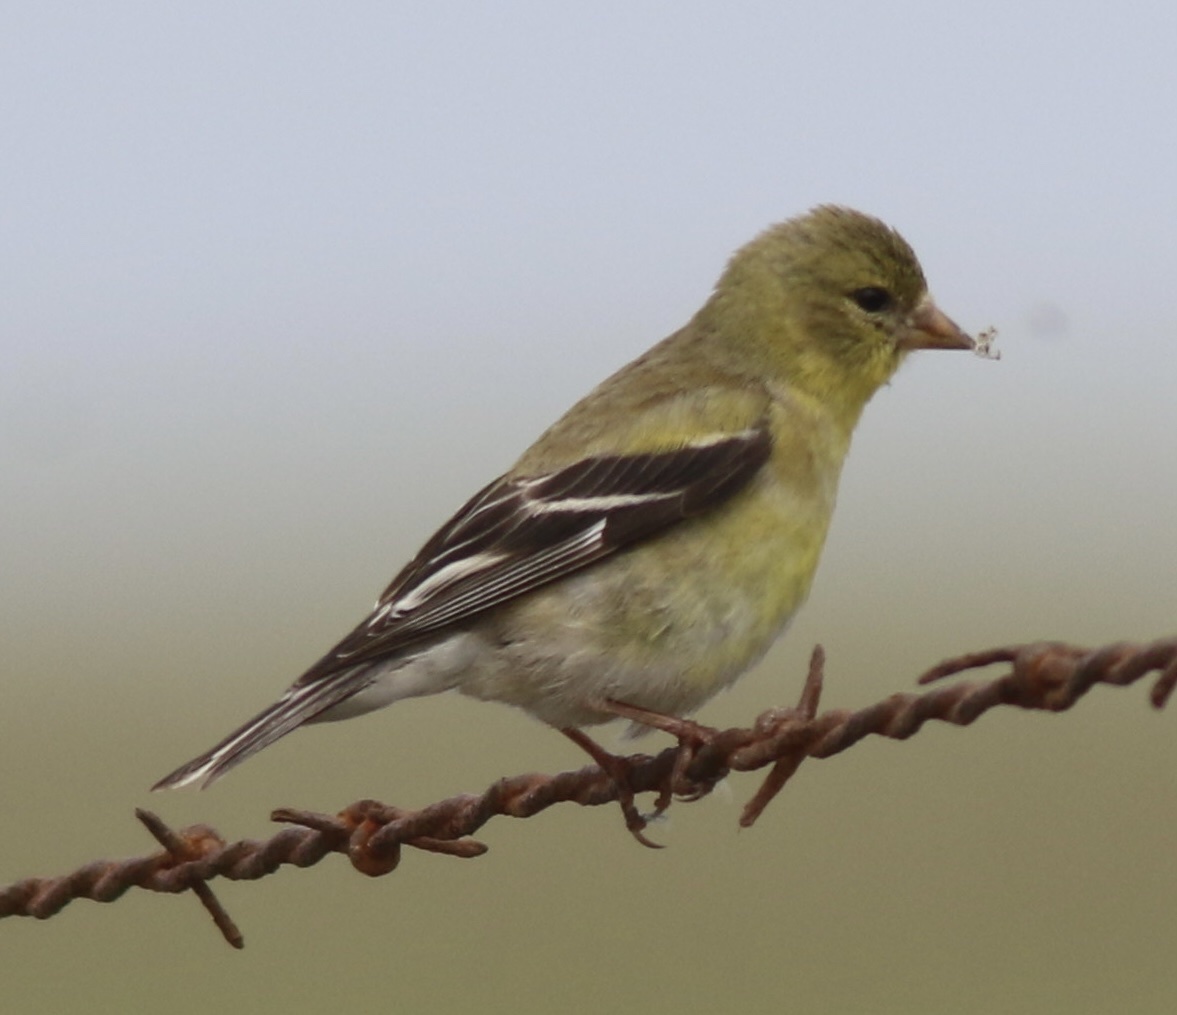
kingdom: Animalia
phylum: Chordata
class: Aves
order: Passeriformes
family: Fringillidae
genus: Spinus
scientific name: Spinus tristis
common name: American goldfinch
